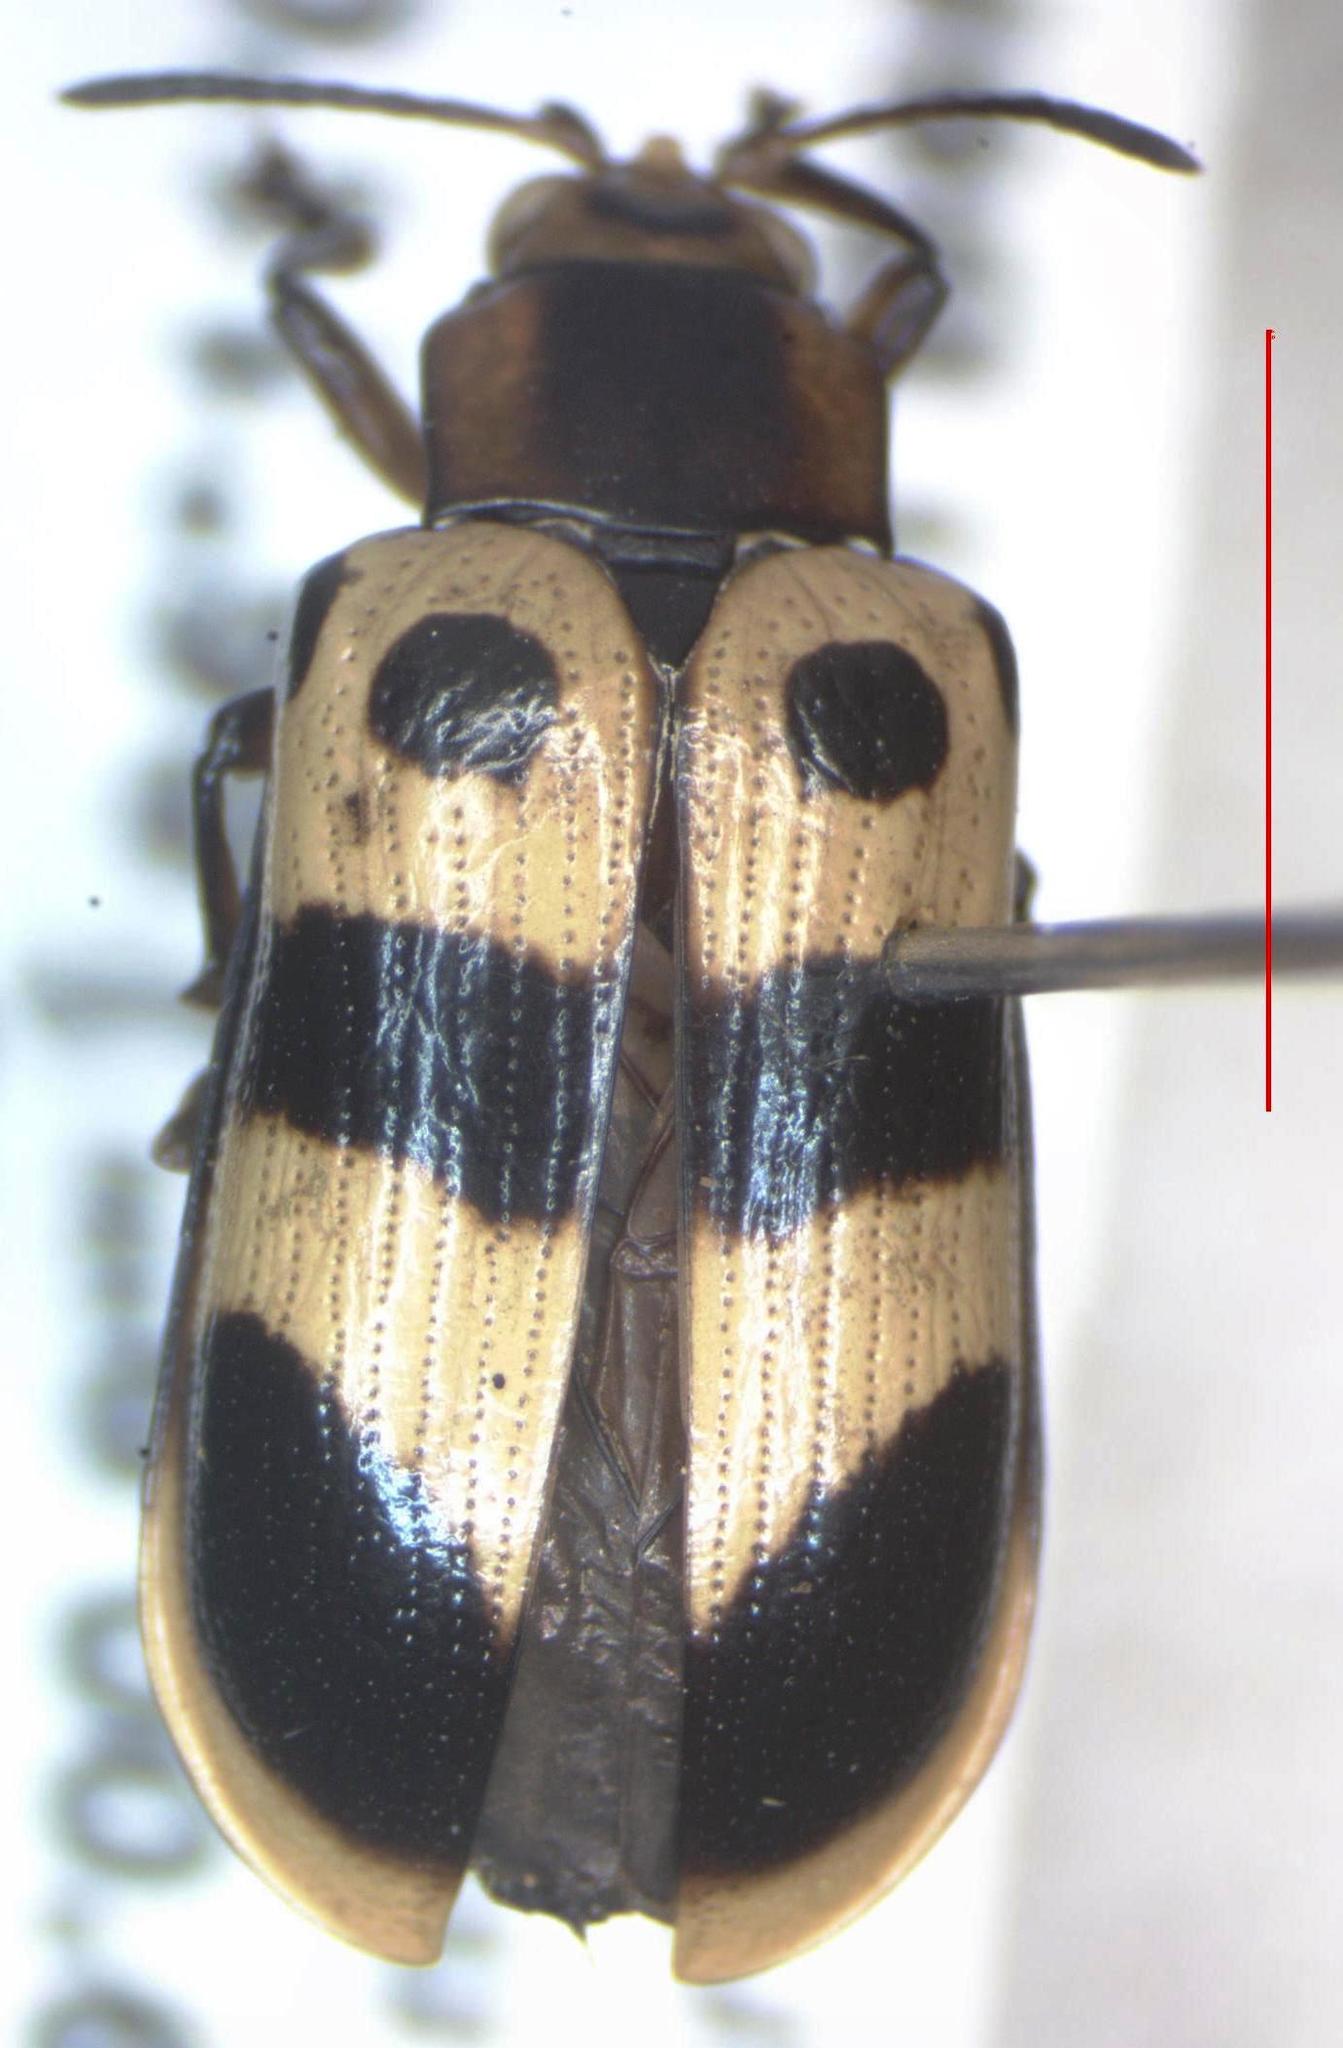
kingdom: Animalia
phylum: Arthropoda
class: Insecta
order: Coleoptera
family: Chrysomelidae
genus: Chelobasis
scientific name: Chelobasis bicolor
